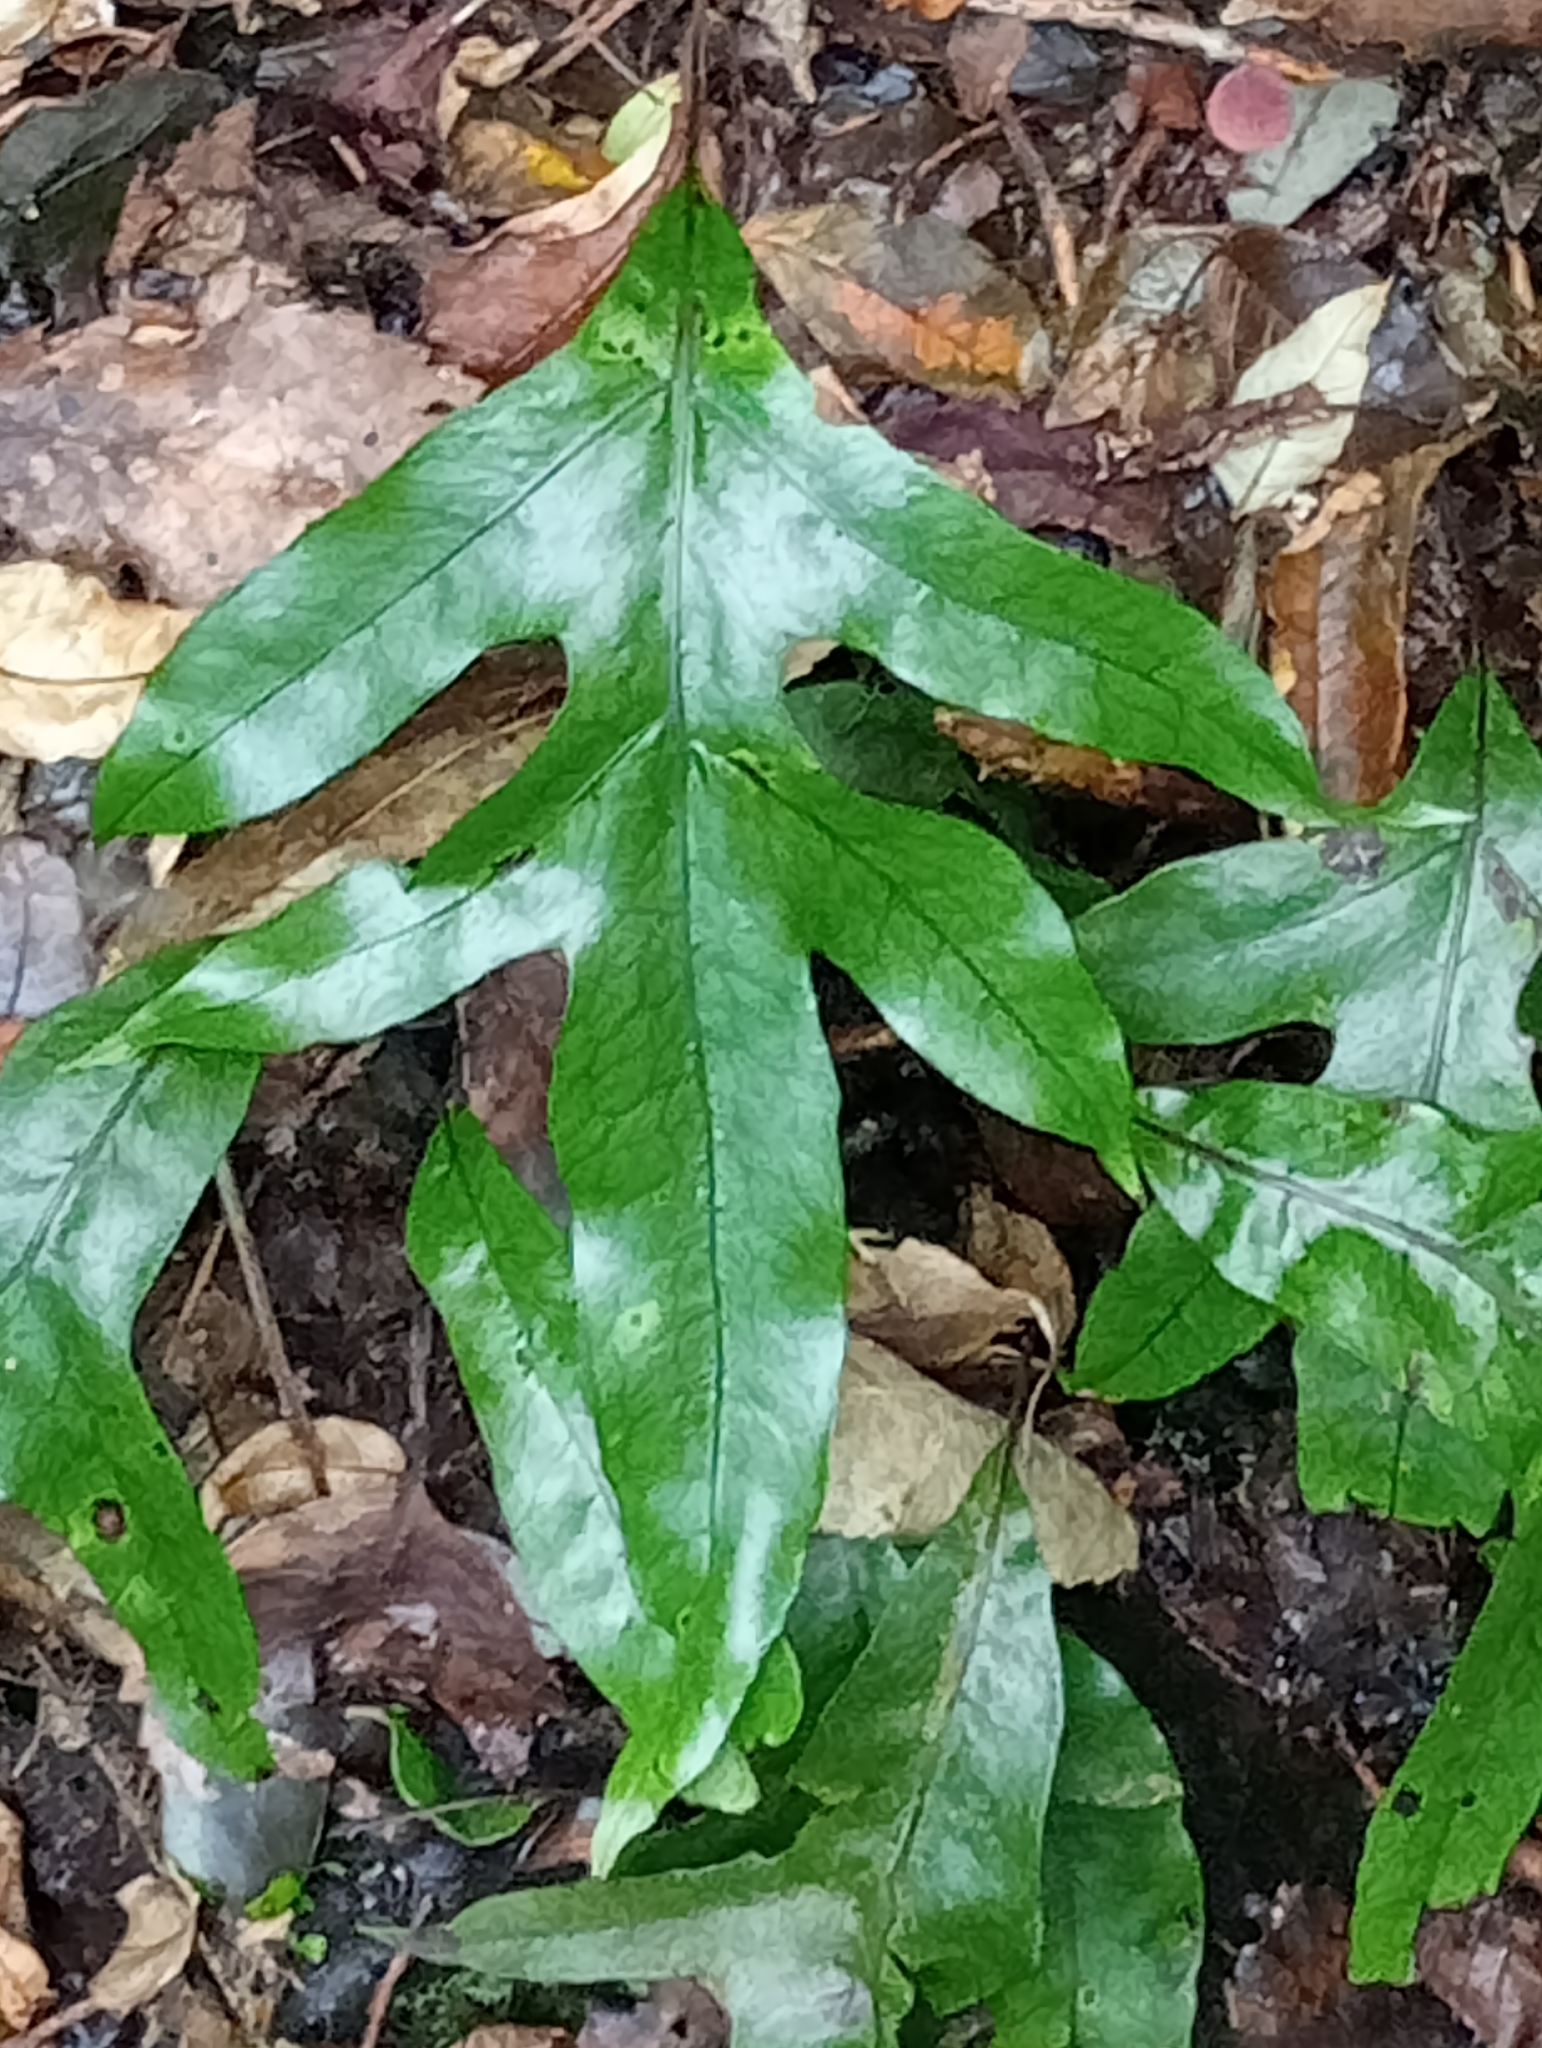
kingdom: Plantae
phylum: Tracheophyta
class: Polypodiopsida
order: Polypodiales
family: Polypodiaceae
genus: Lecanopteris
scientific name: Lecanopteris pustulata
